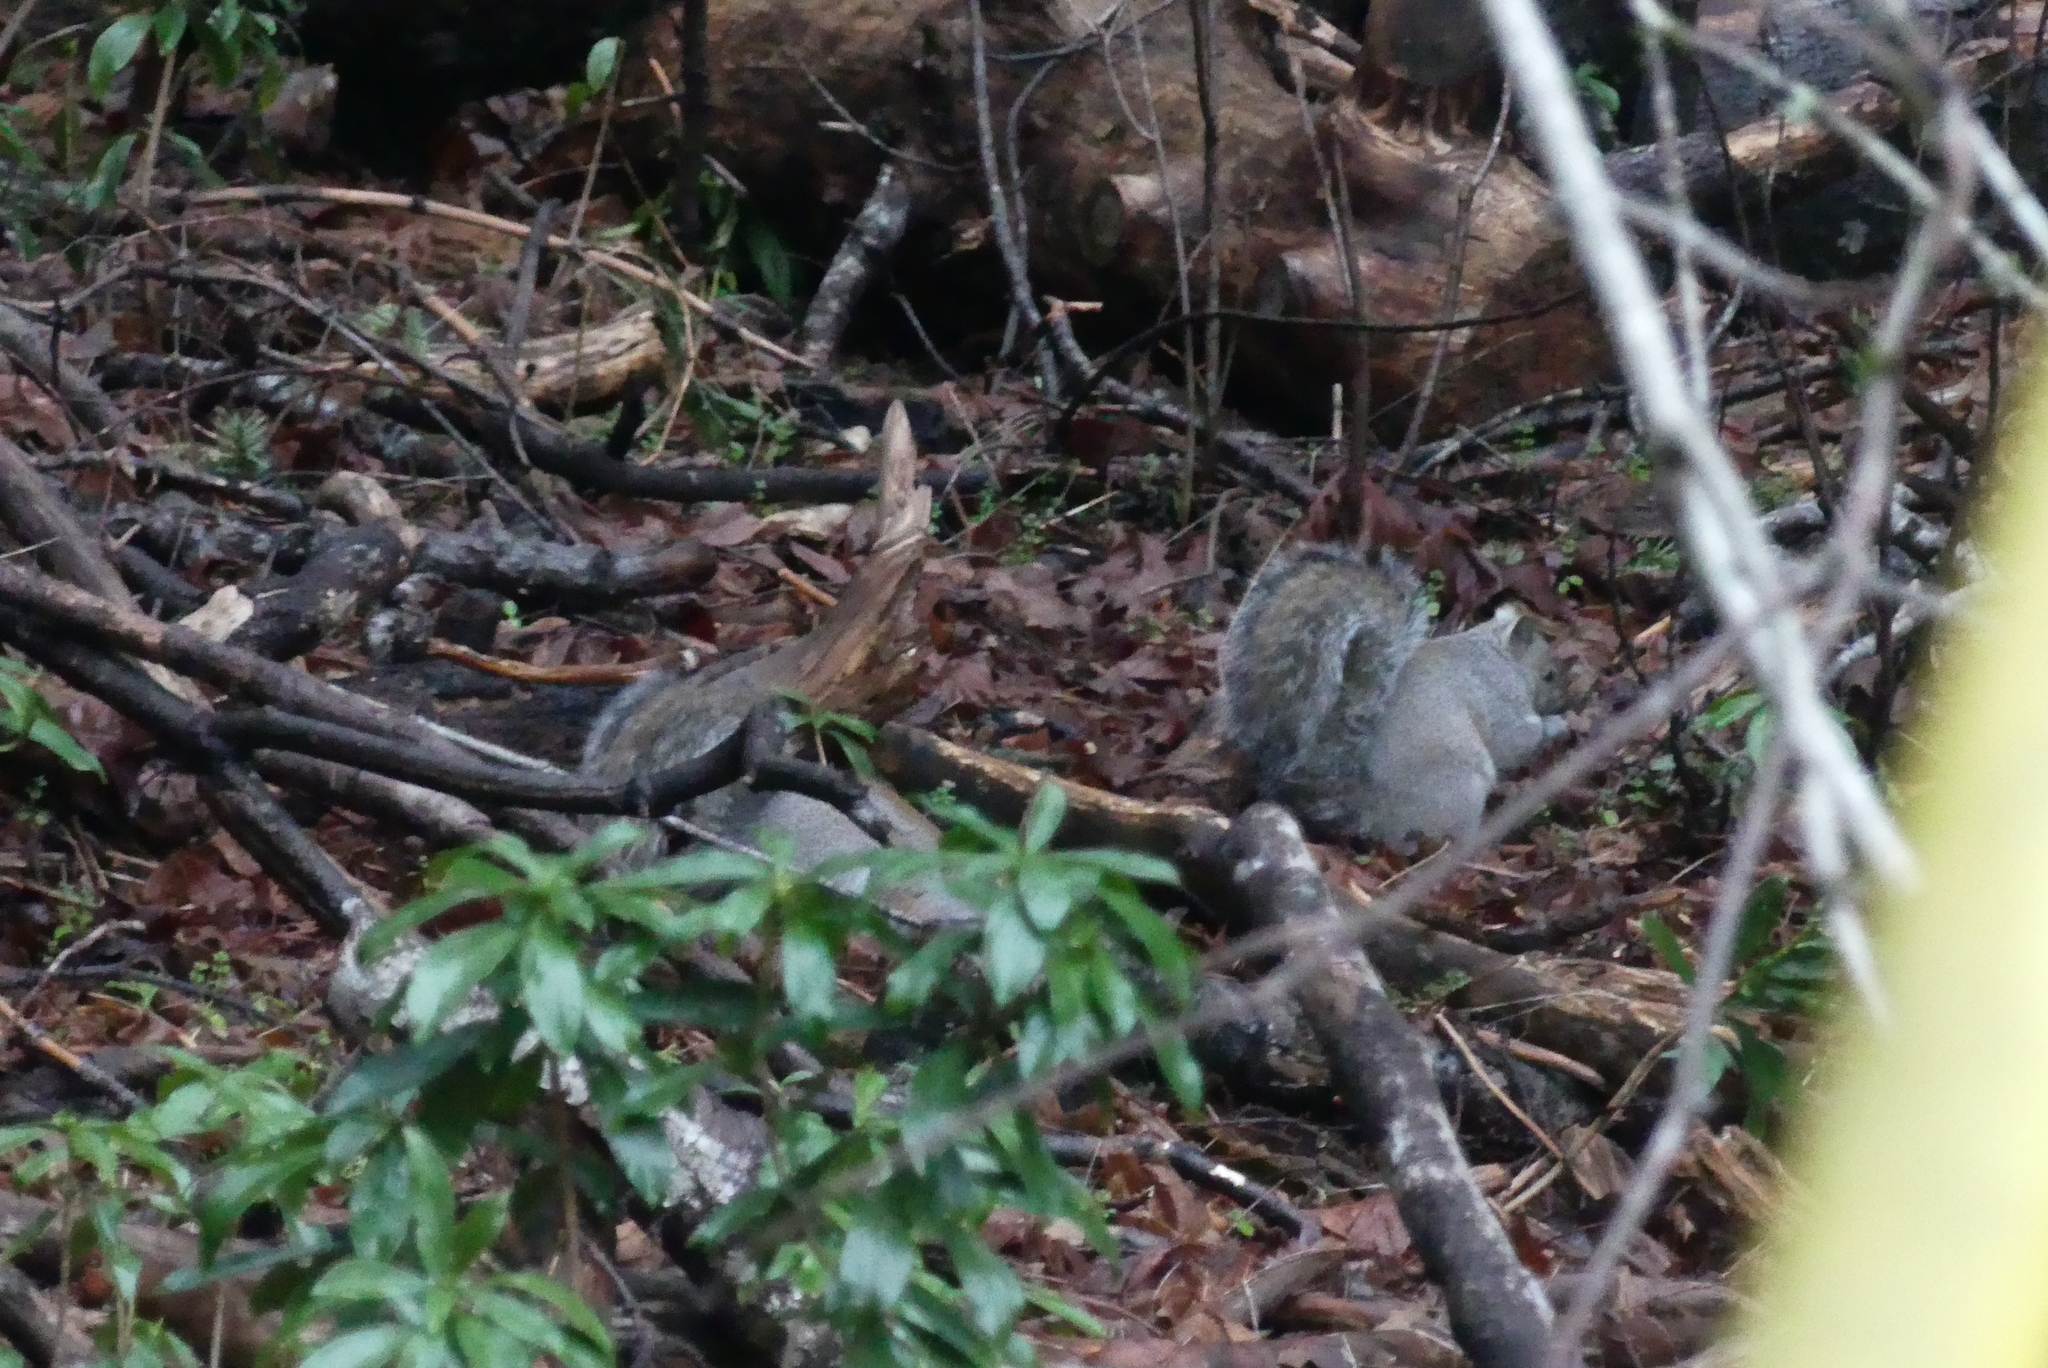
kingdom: Animalia
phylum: Chordata
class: Mammalia
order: Rodentia
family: Sciuridae
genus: Sciurus
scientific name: Sciurus carolinensis
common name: Eastern gray squirrel
